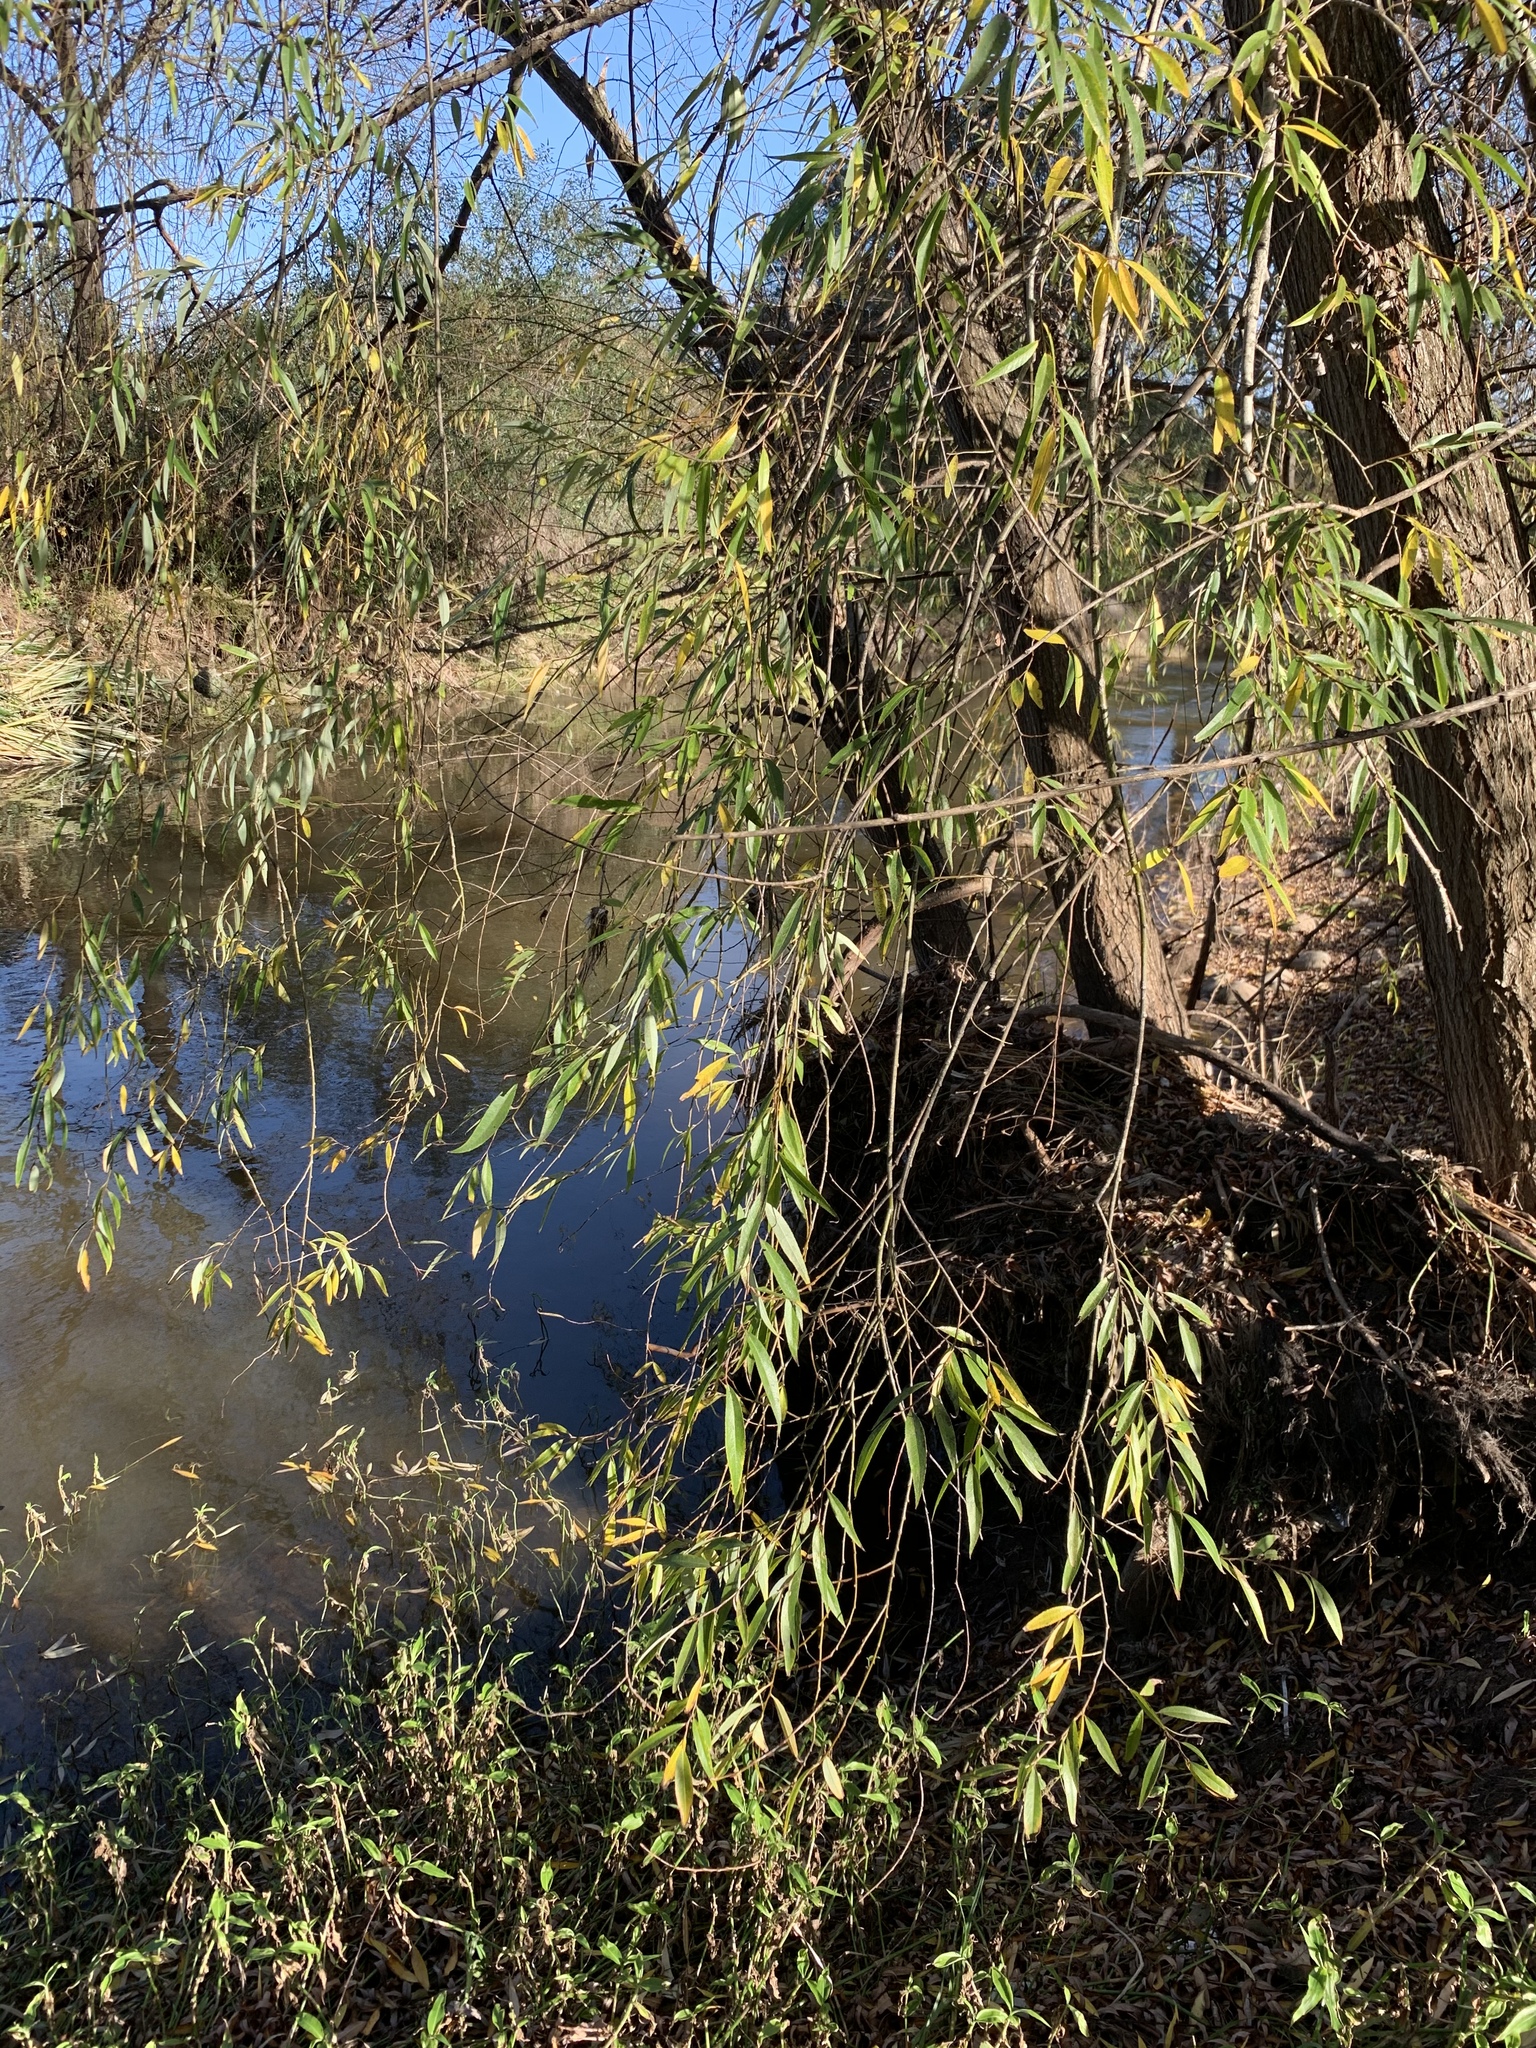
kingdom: Plantae
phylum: Tracheophyta
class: Magnoliopsida
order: Malpighiales
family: Salicaceae
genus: Salix
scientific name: Salix babylonica
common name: Weeping willow
